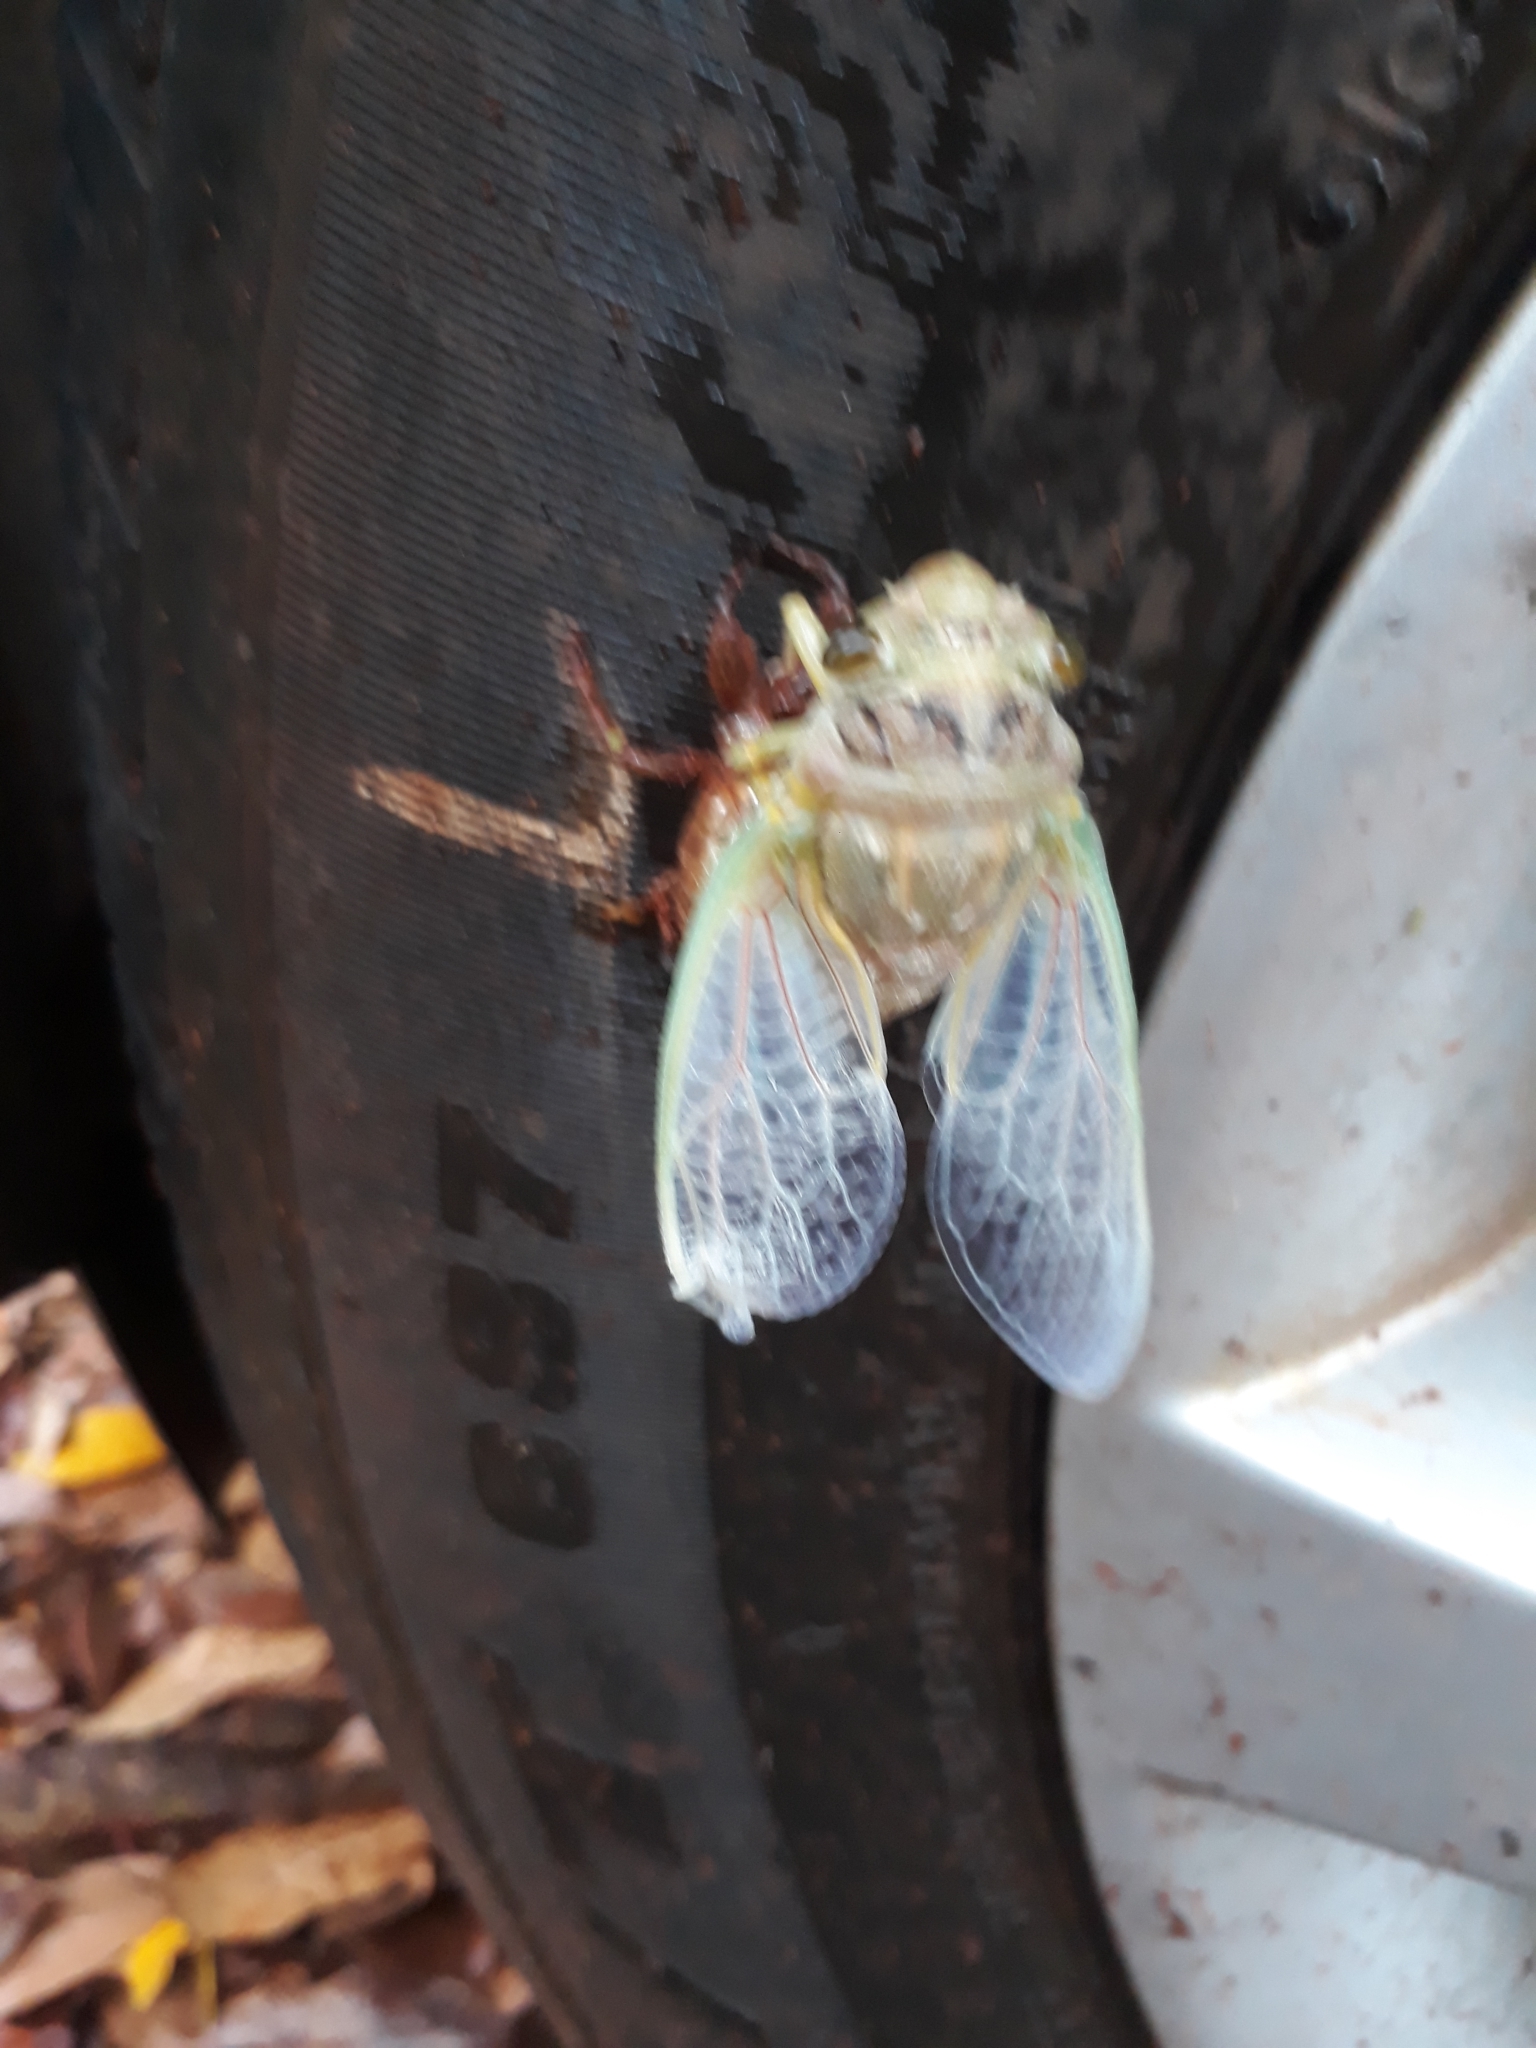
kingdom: Animalia
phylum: Arthropoda
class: Insecta
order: Hemiptera
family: Cicadidae
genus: Quesada
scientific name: Quesada gigas
